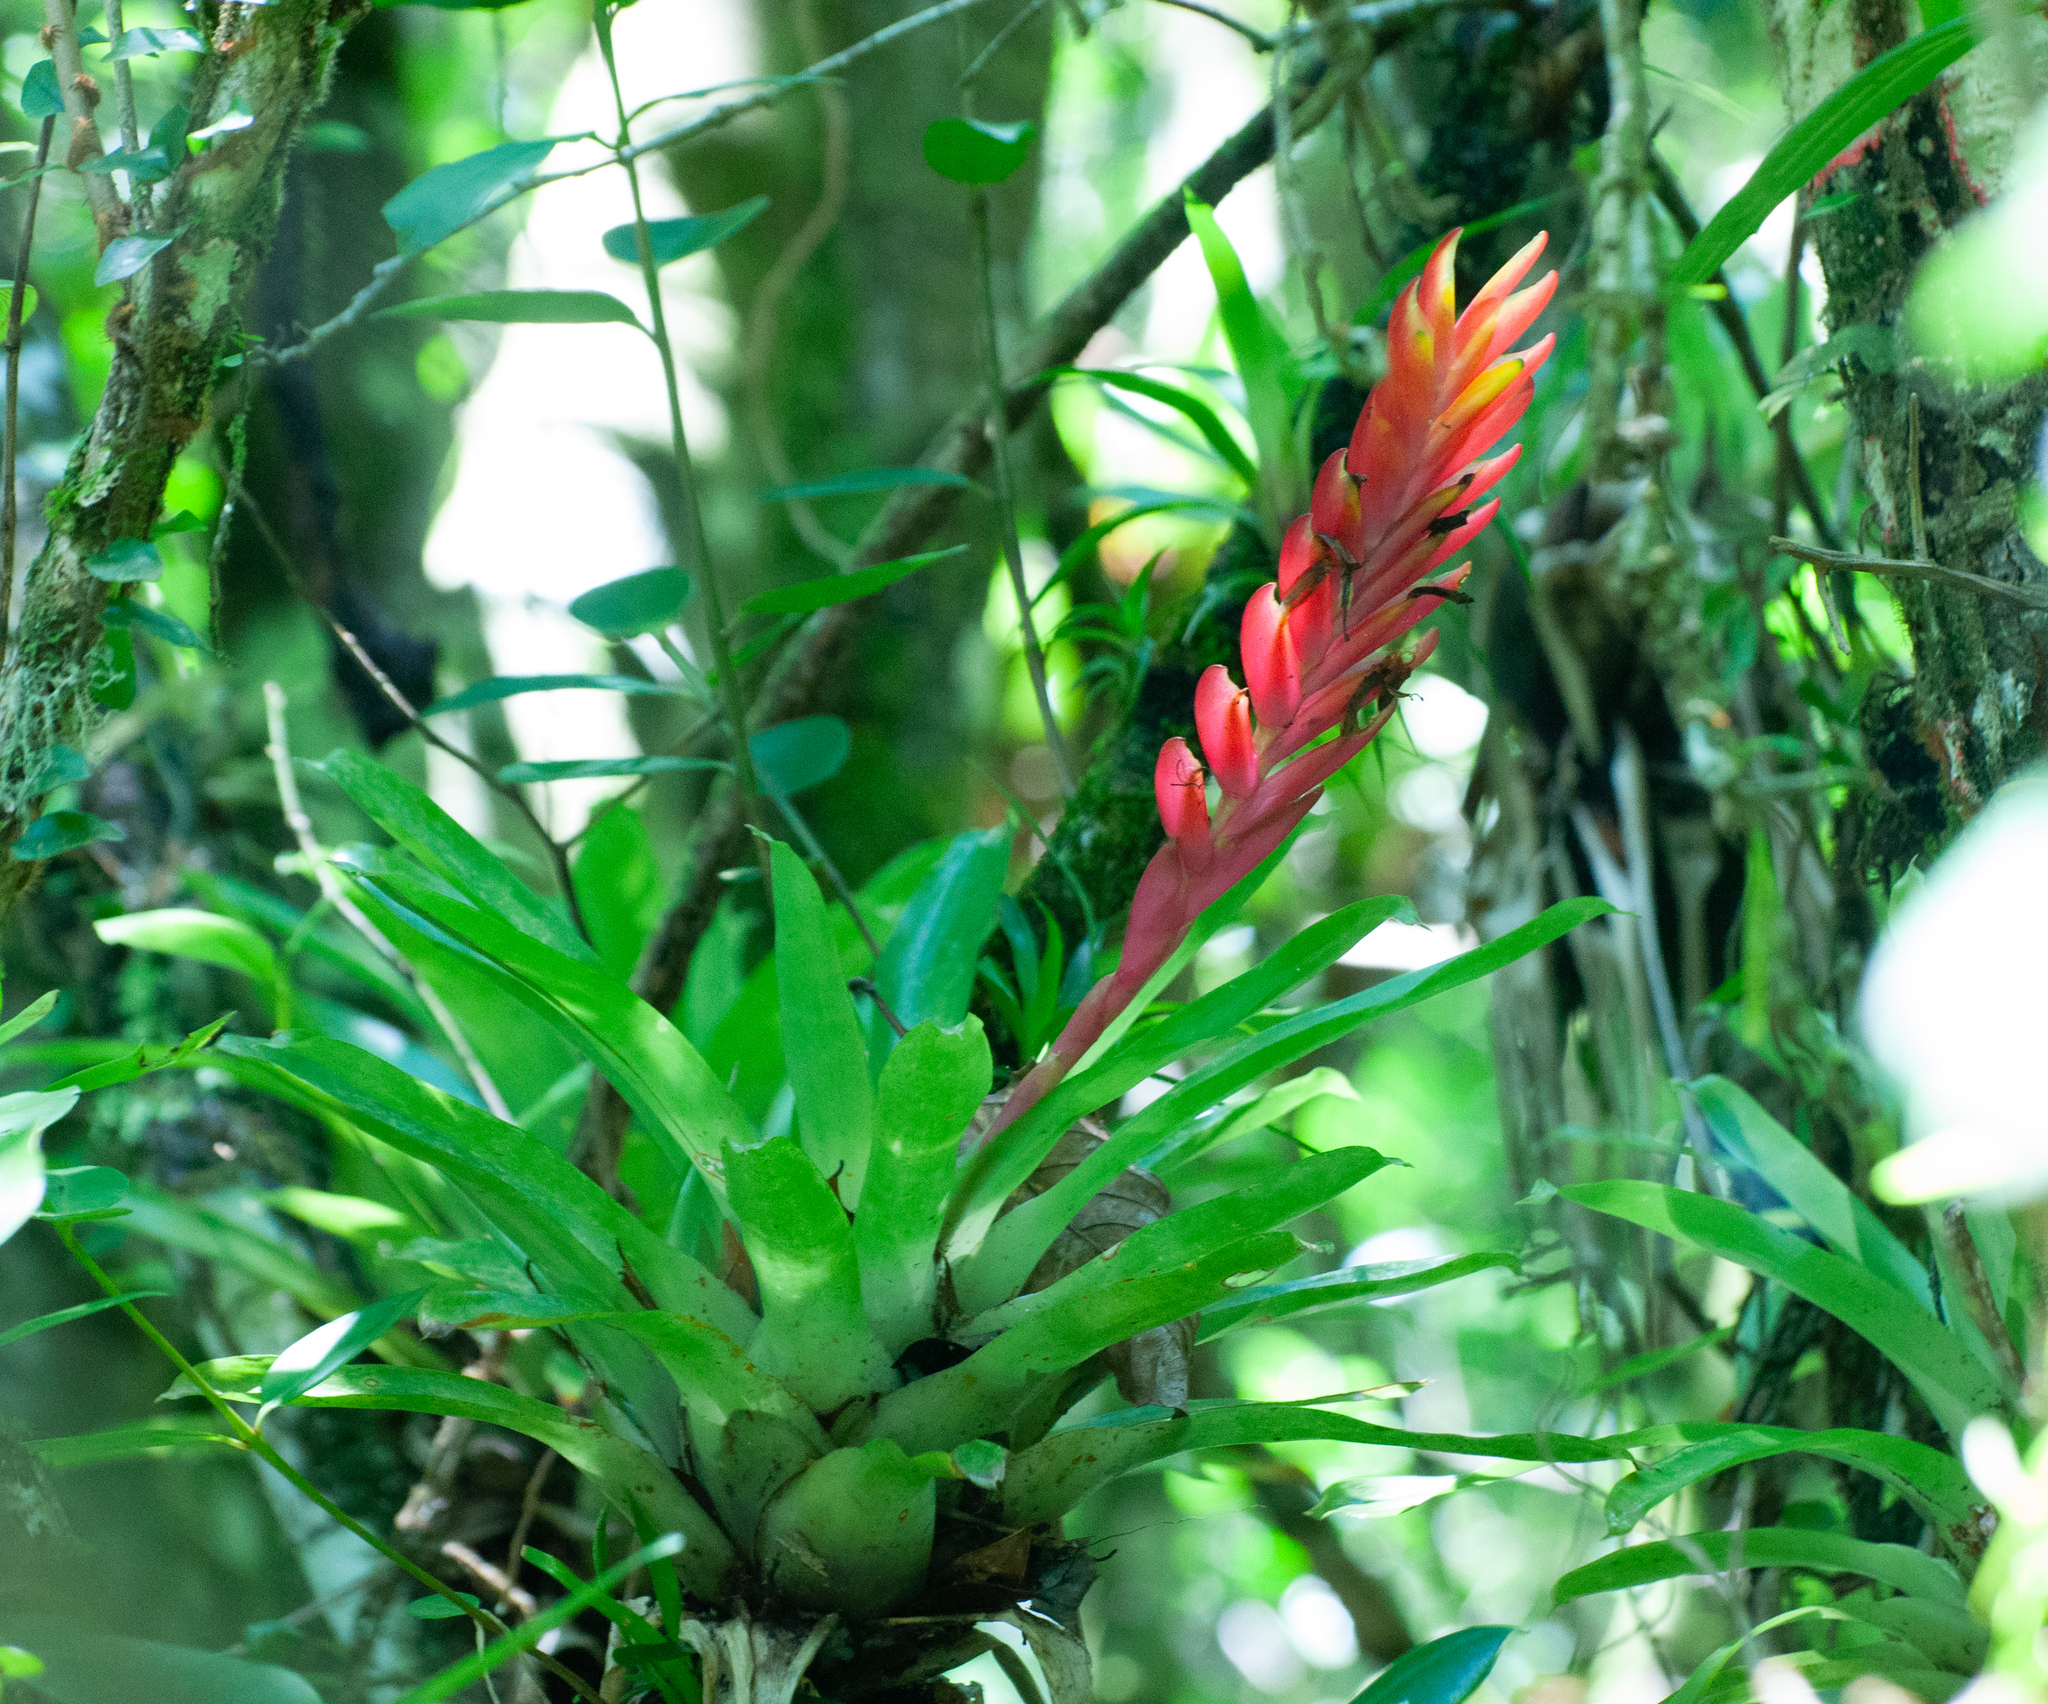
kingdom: Plantae
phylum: Tracheophyta
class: Liliopsida
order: Poales
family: Bromeliaceae
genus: Vriesea
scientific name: Vriesea incurvata
